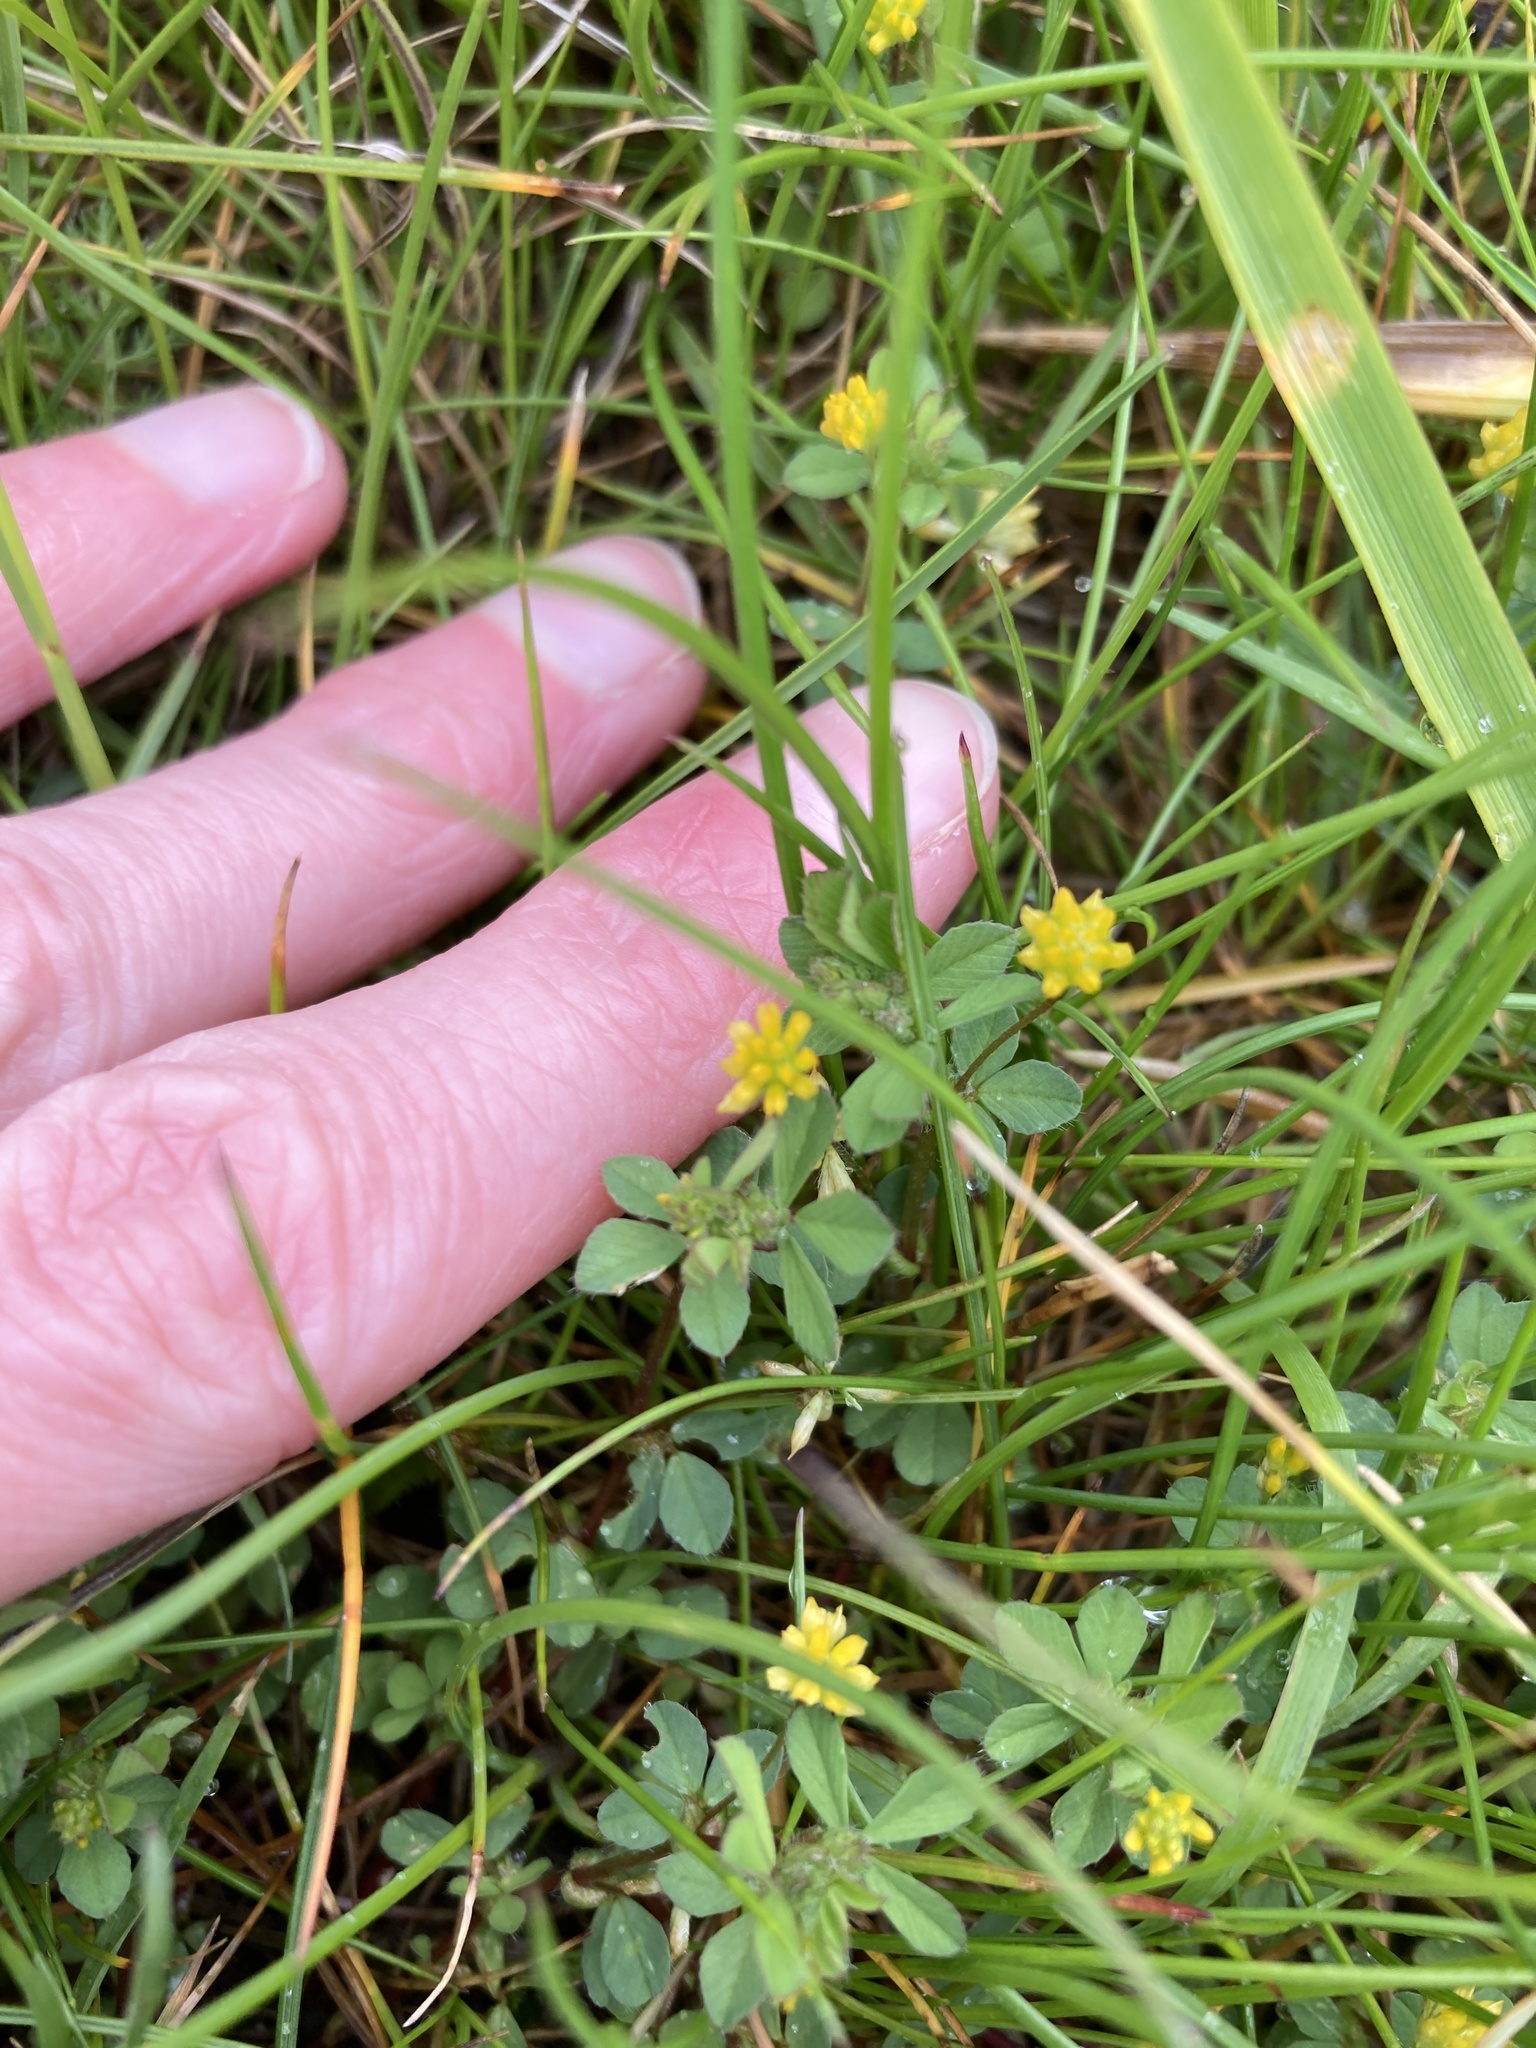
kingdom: Plantae
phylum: Tracheophyta
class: Magnoliopsida
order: Fabales
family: Fabaceae
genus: Trifolium
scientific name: Trifolium dubium
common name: Suckling clover
